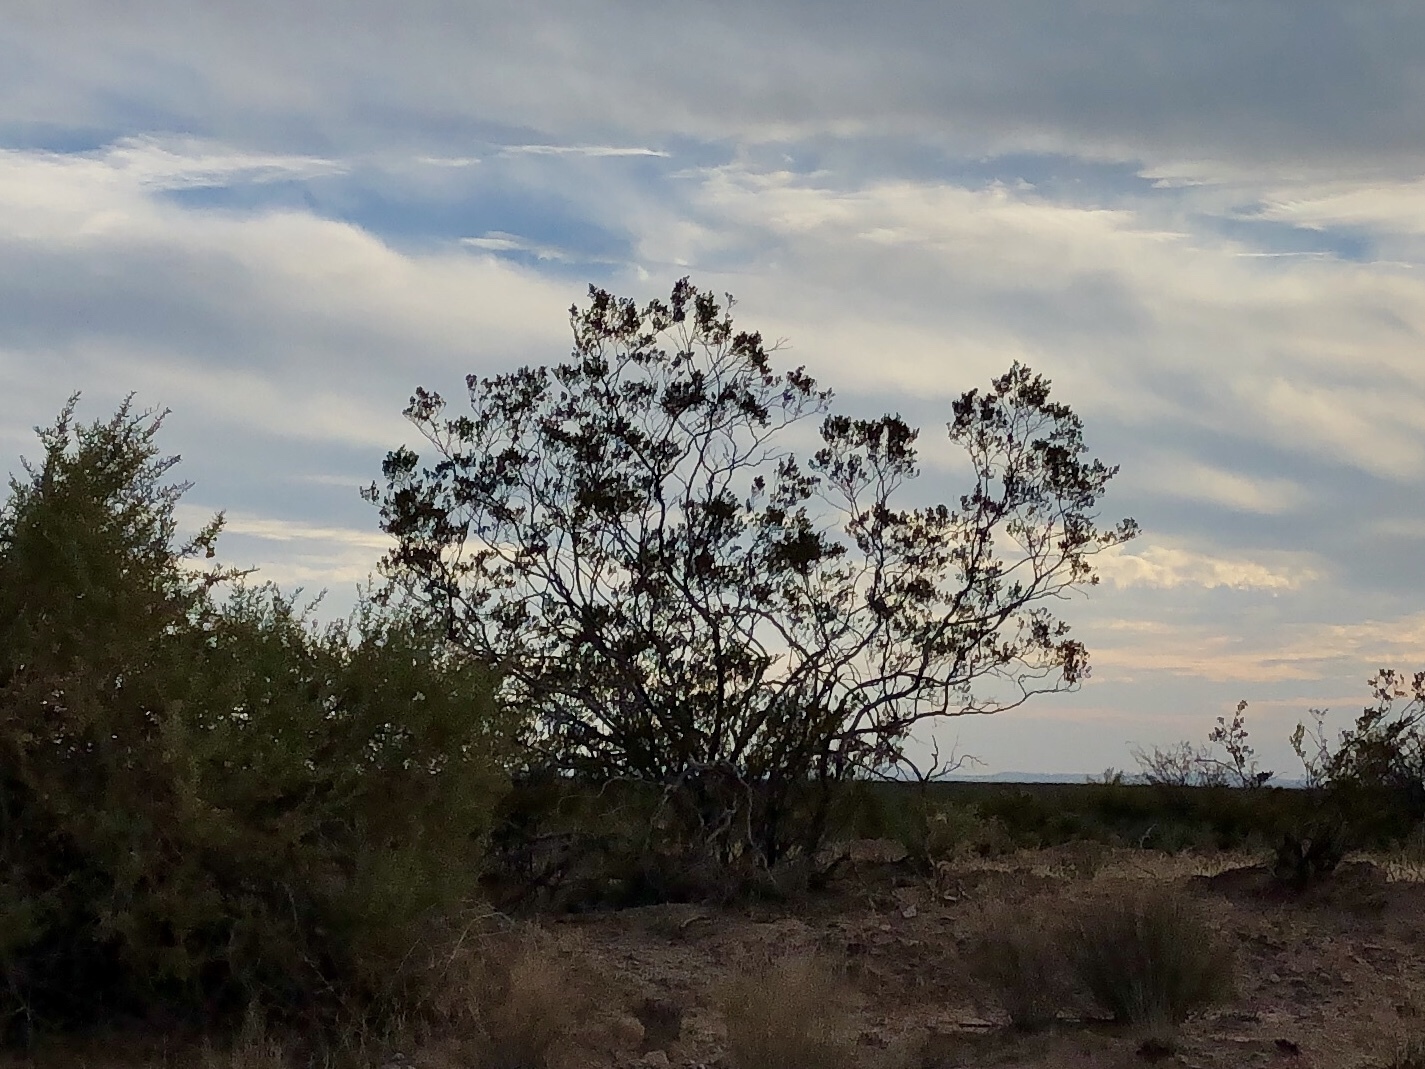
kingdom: Plantae
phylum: Tracheophyta
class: Magnoliopsida
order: Zygophyllales
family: Zygophyllaceae
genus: Larrea
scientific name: Larrea tridentata
